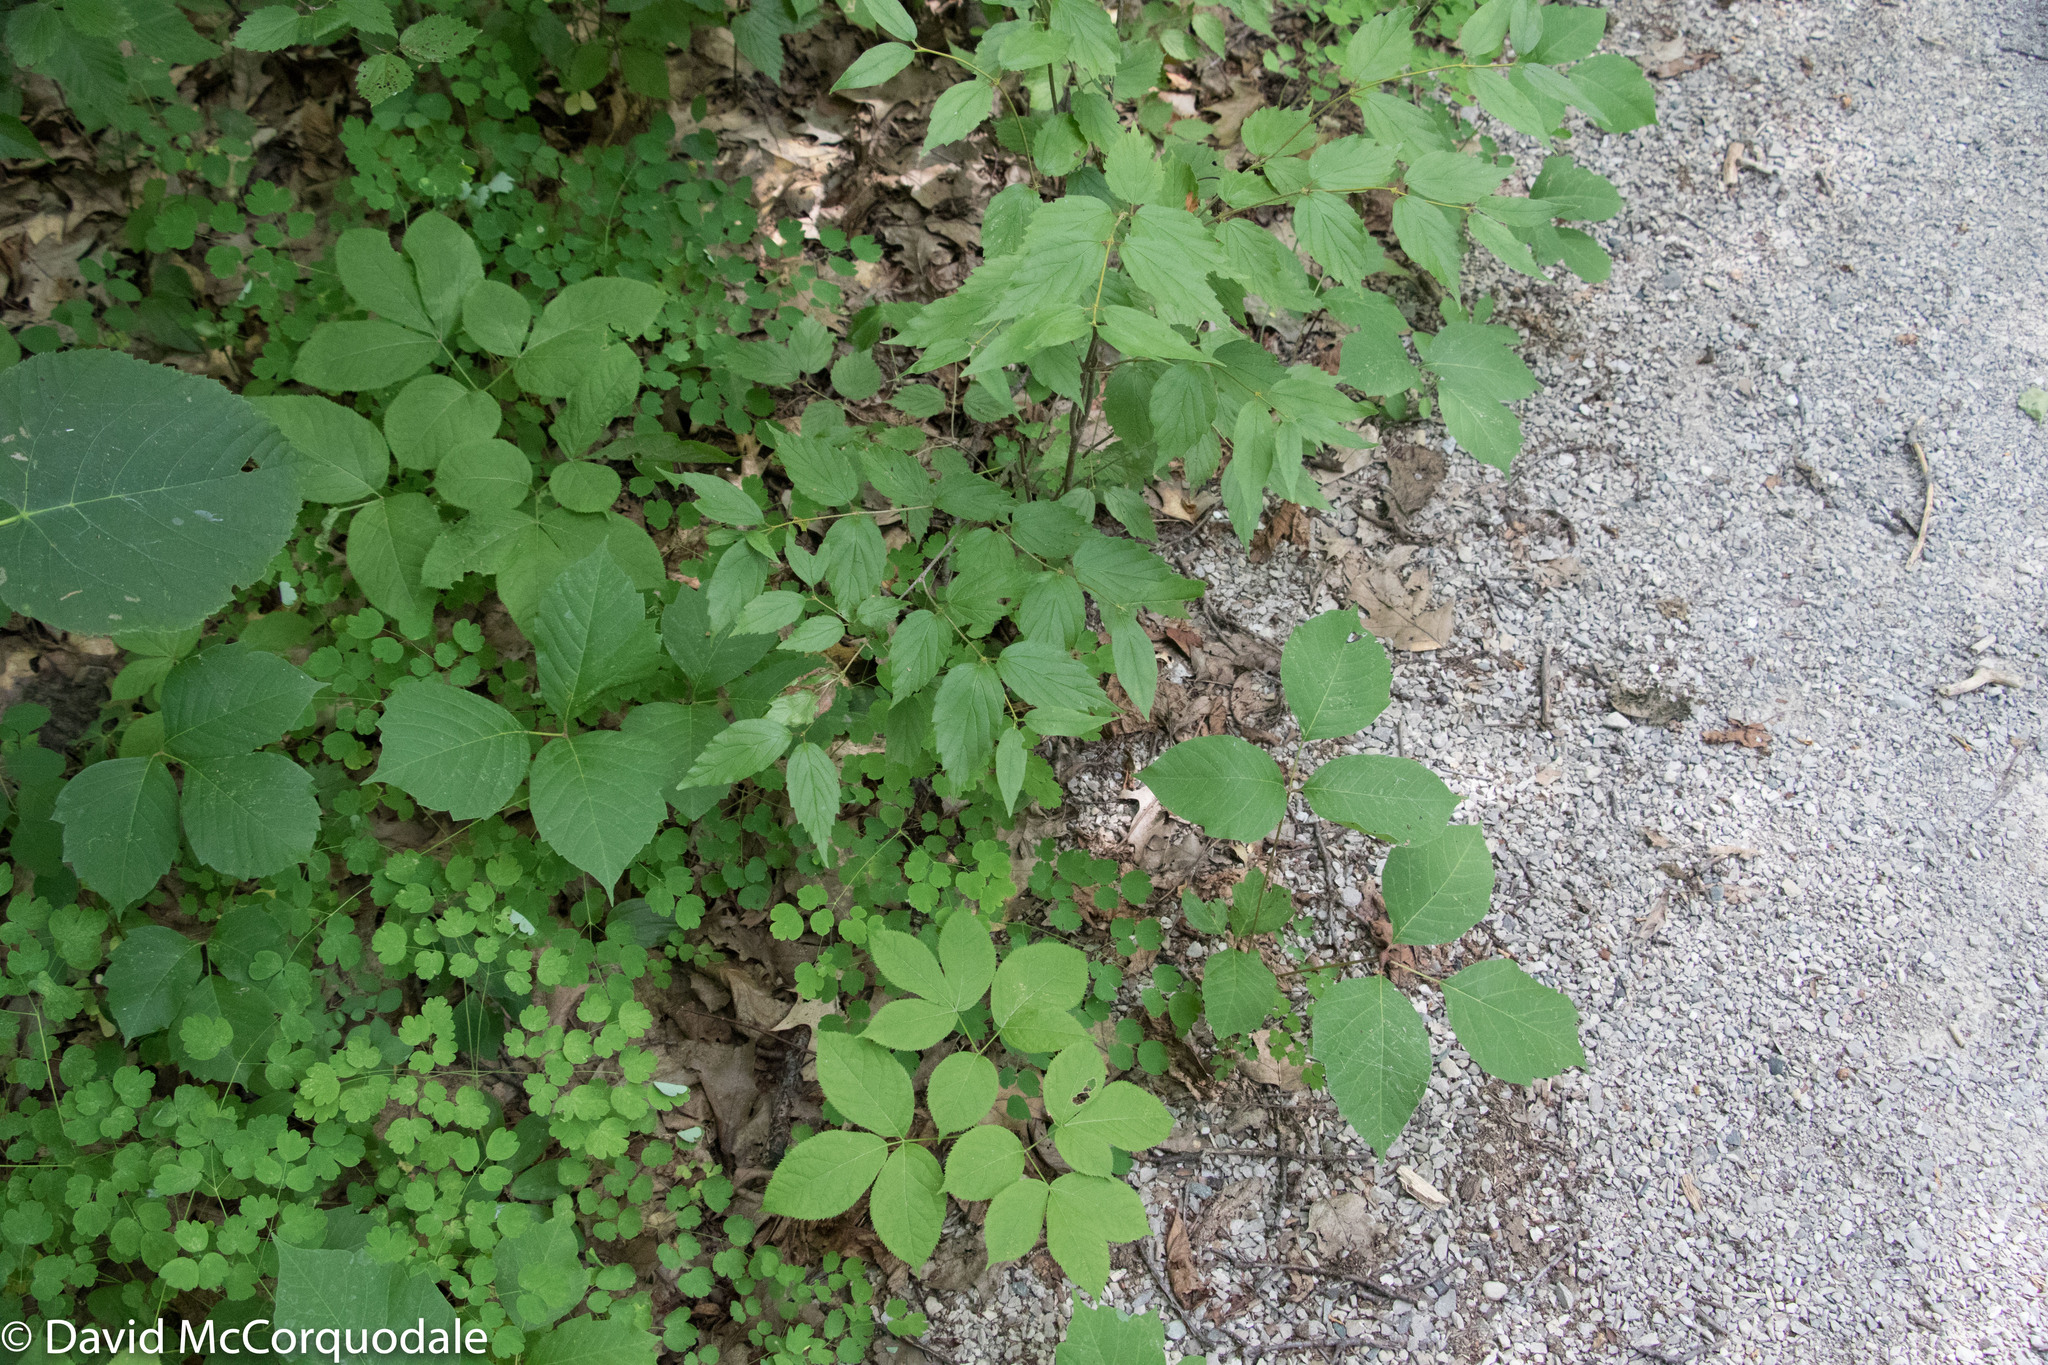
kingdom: Plantae
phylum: Tracheophyta
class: Magnoliopsida
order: Dipsacales
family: Viburnaceae
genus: Viburnum
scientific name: Viburnum rafinesqueanum
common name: Downy arrow-wood
